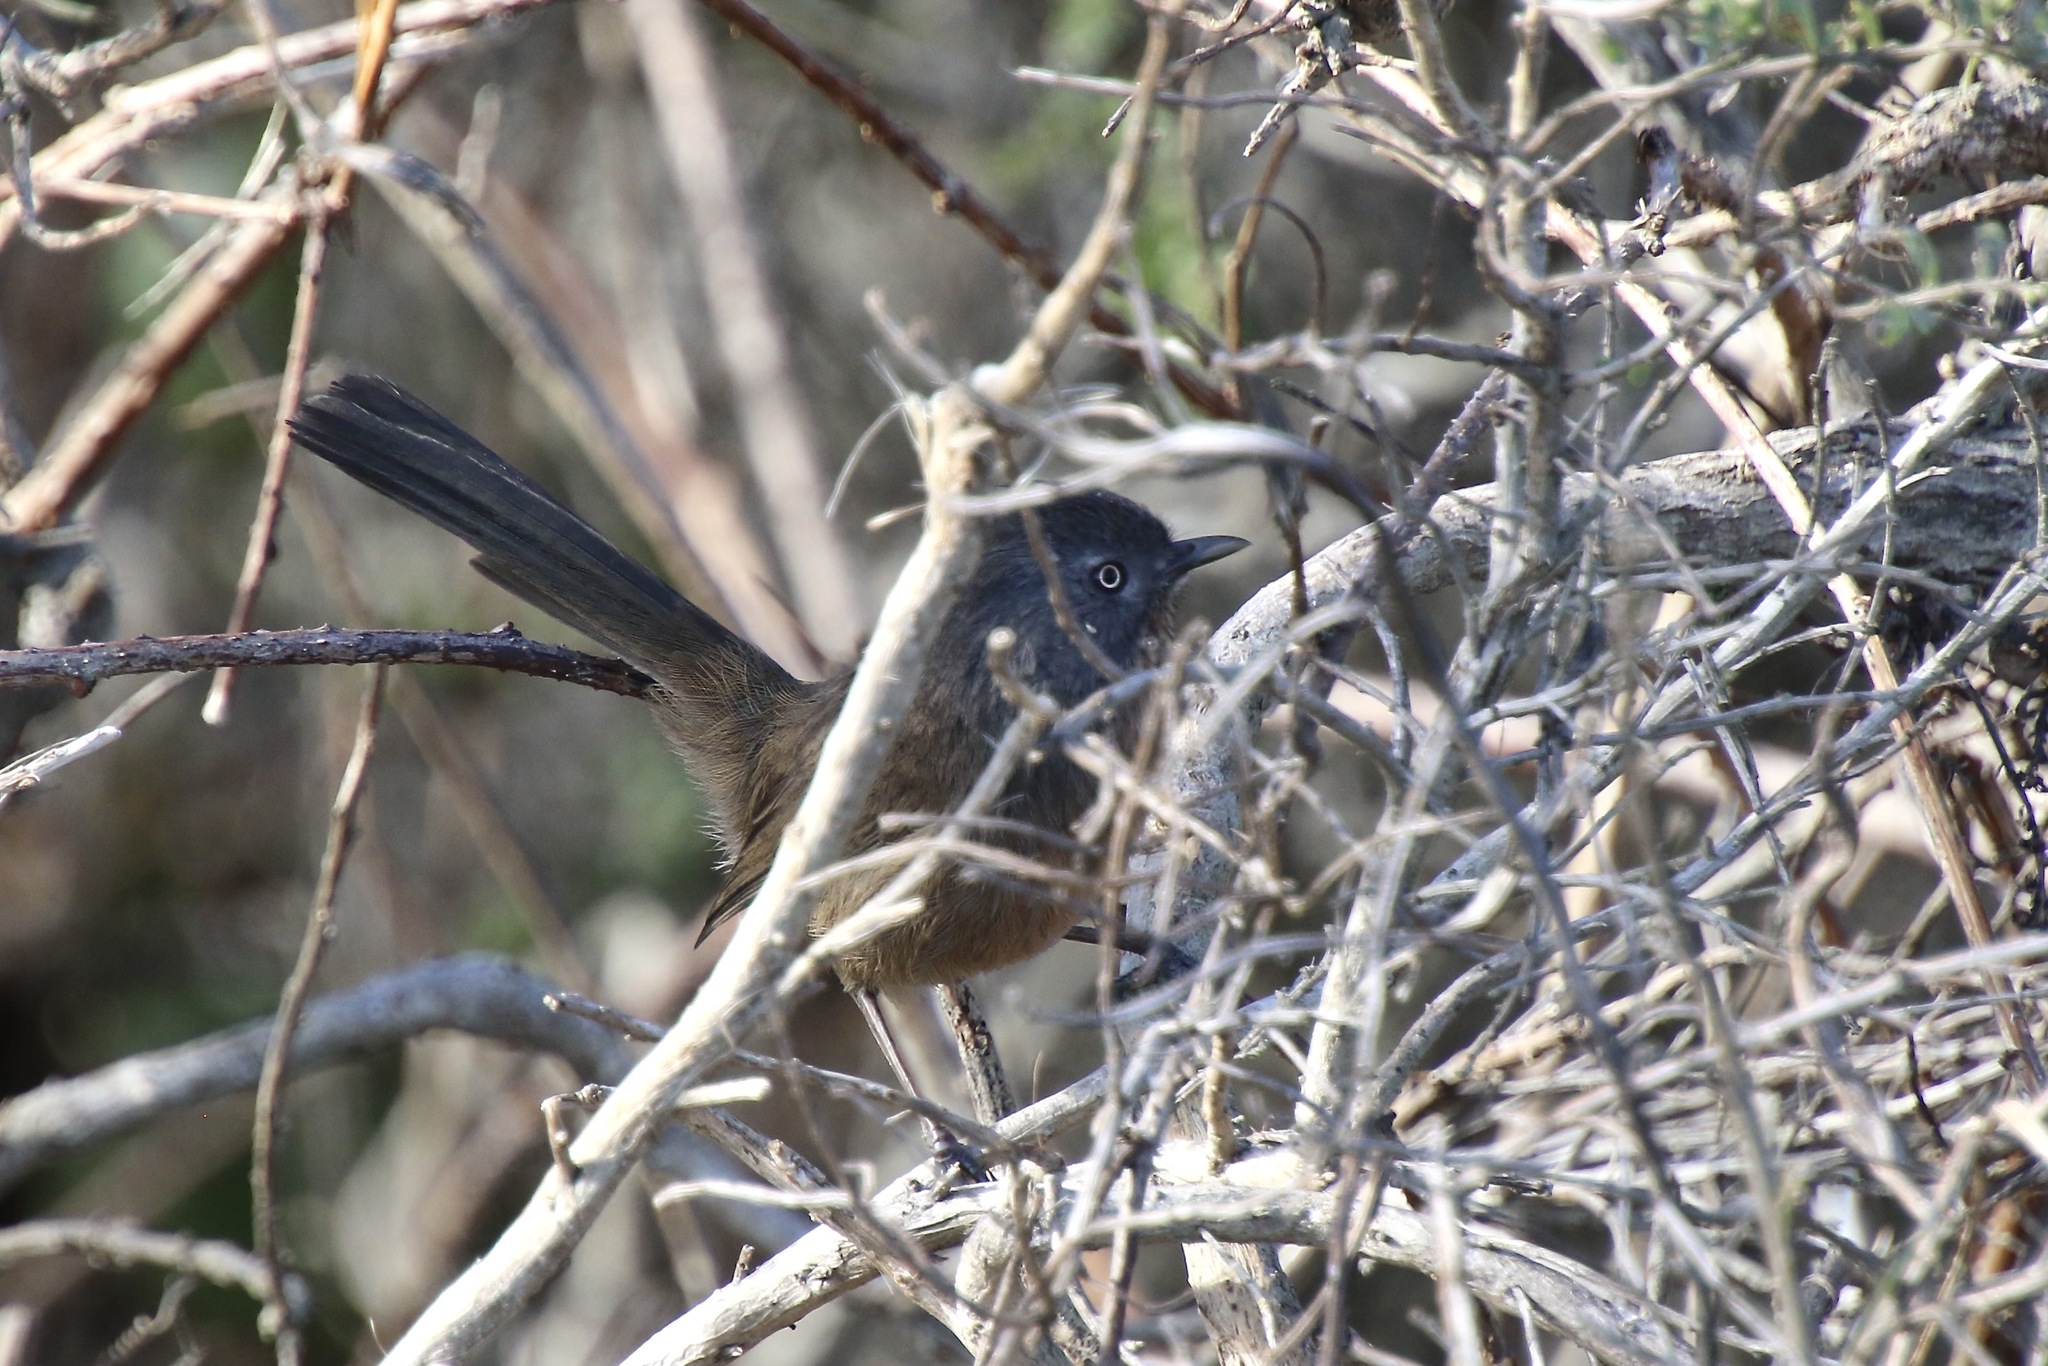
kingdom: Animalia
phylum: Chordata
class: Aves
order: Passeriformes
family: Sylviidae
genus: Chamaea
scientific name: Chamaea fasciata
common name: Wrentit
